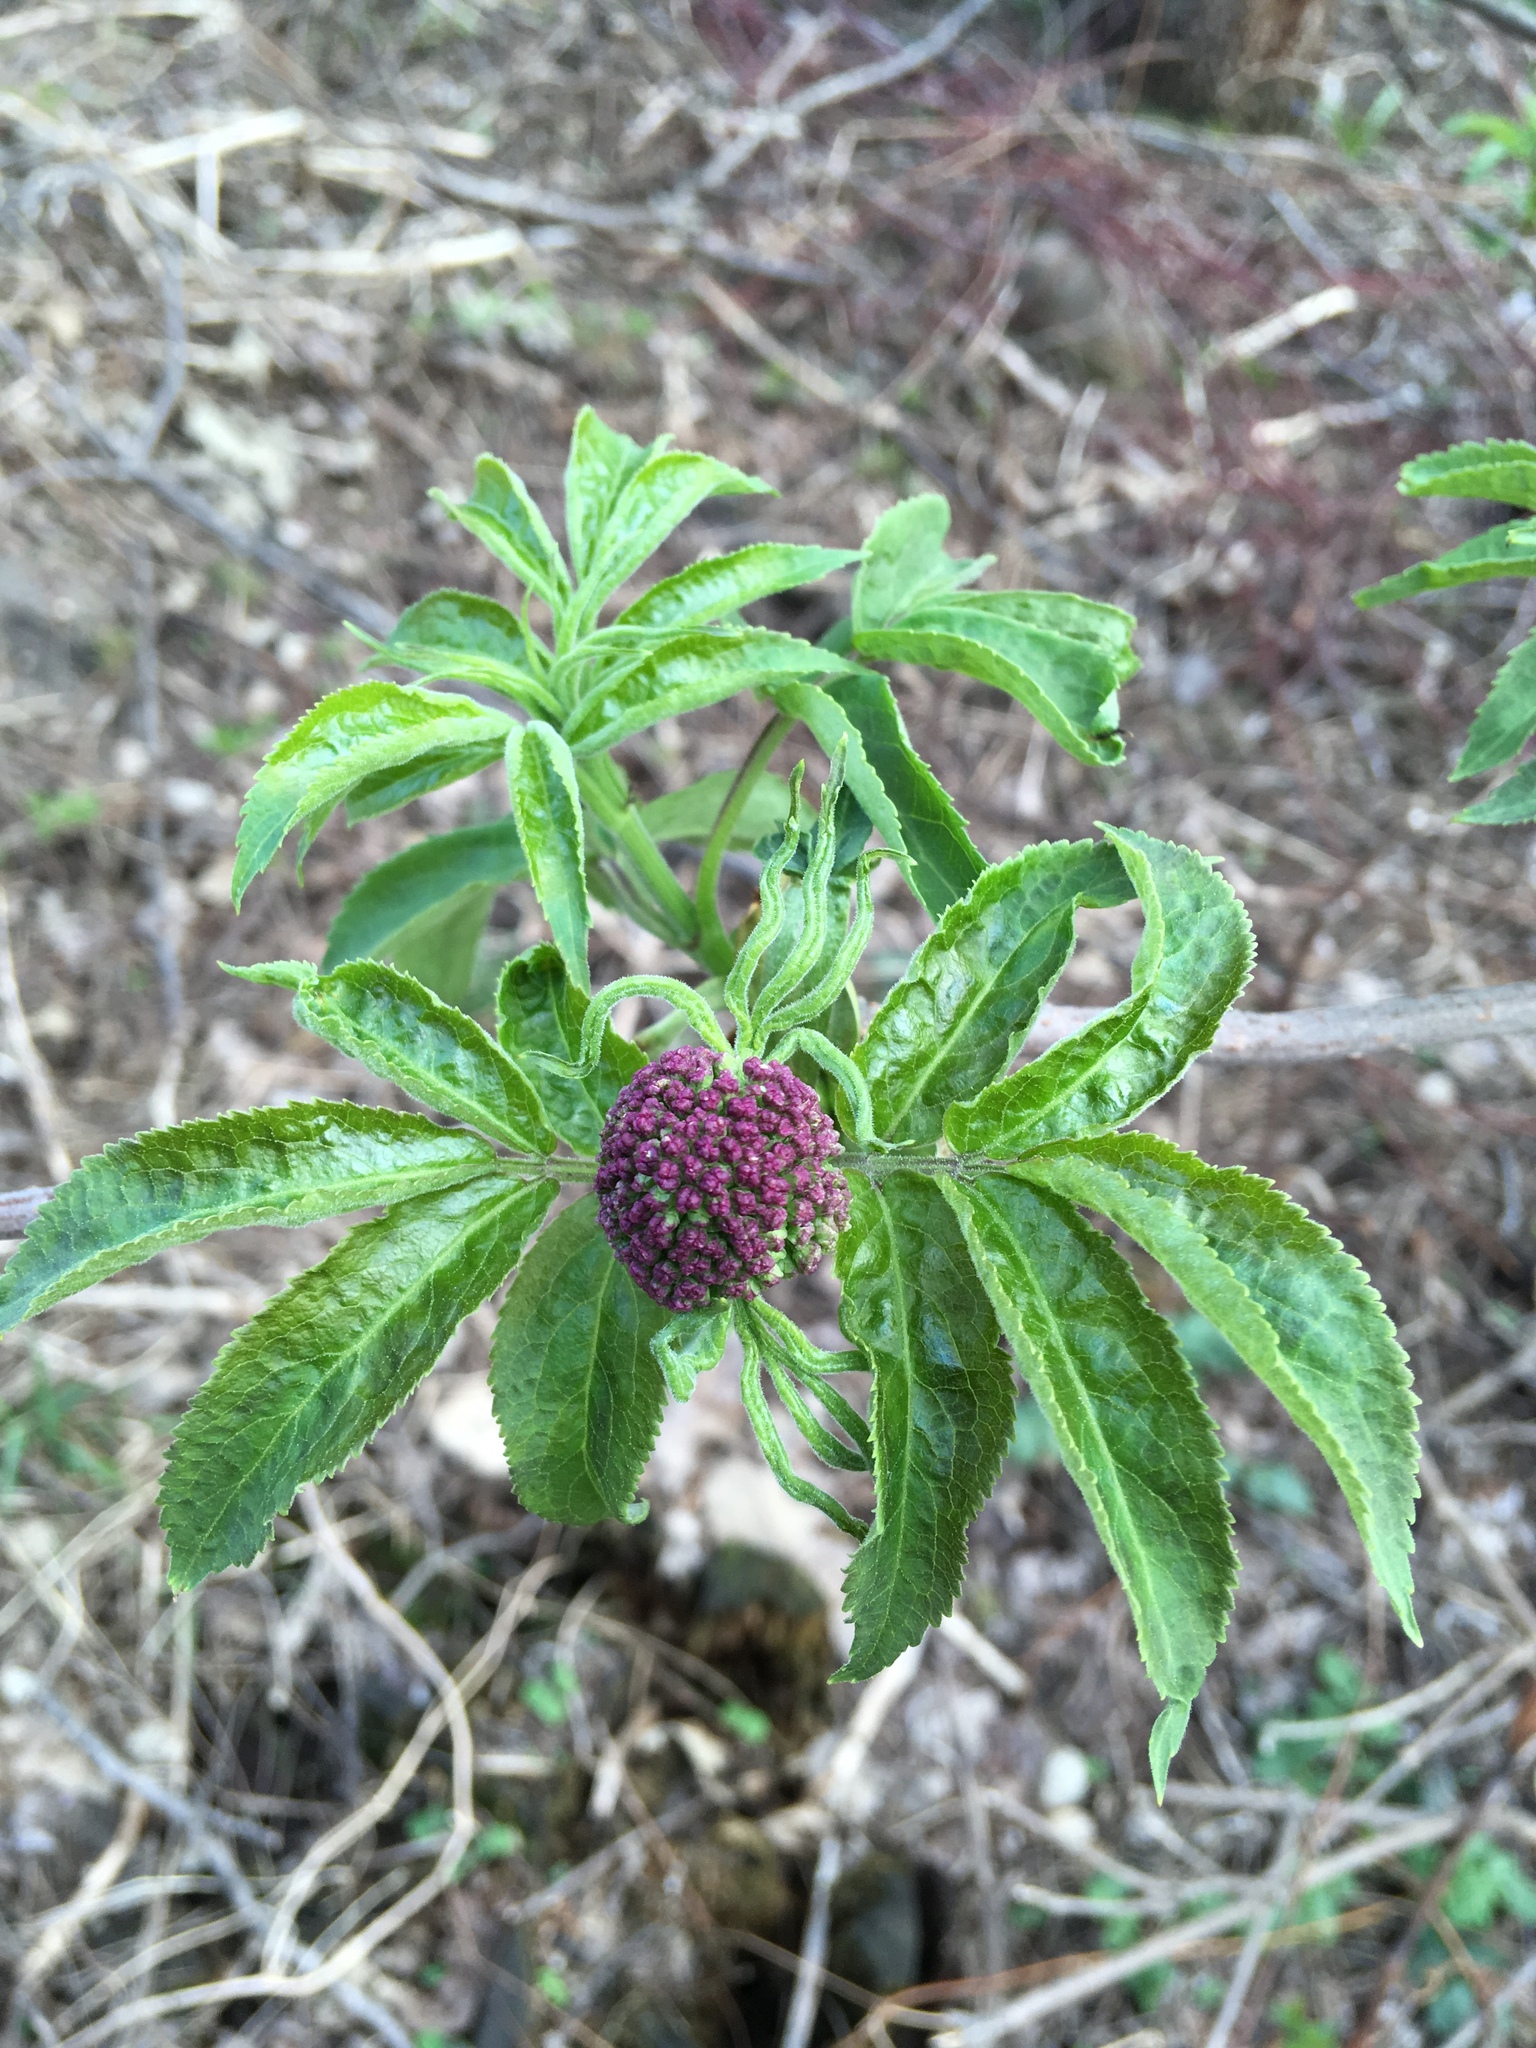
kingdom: Plantae
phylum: Tracheophyta
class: Magnoliopsida
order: Dipsacales
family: Viburnaceae
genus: Sambucus
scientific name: Sambucus racemosa
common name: Red-berried elder
